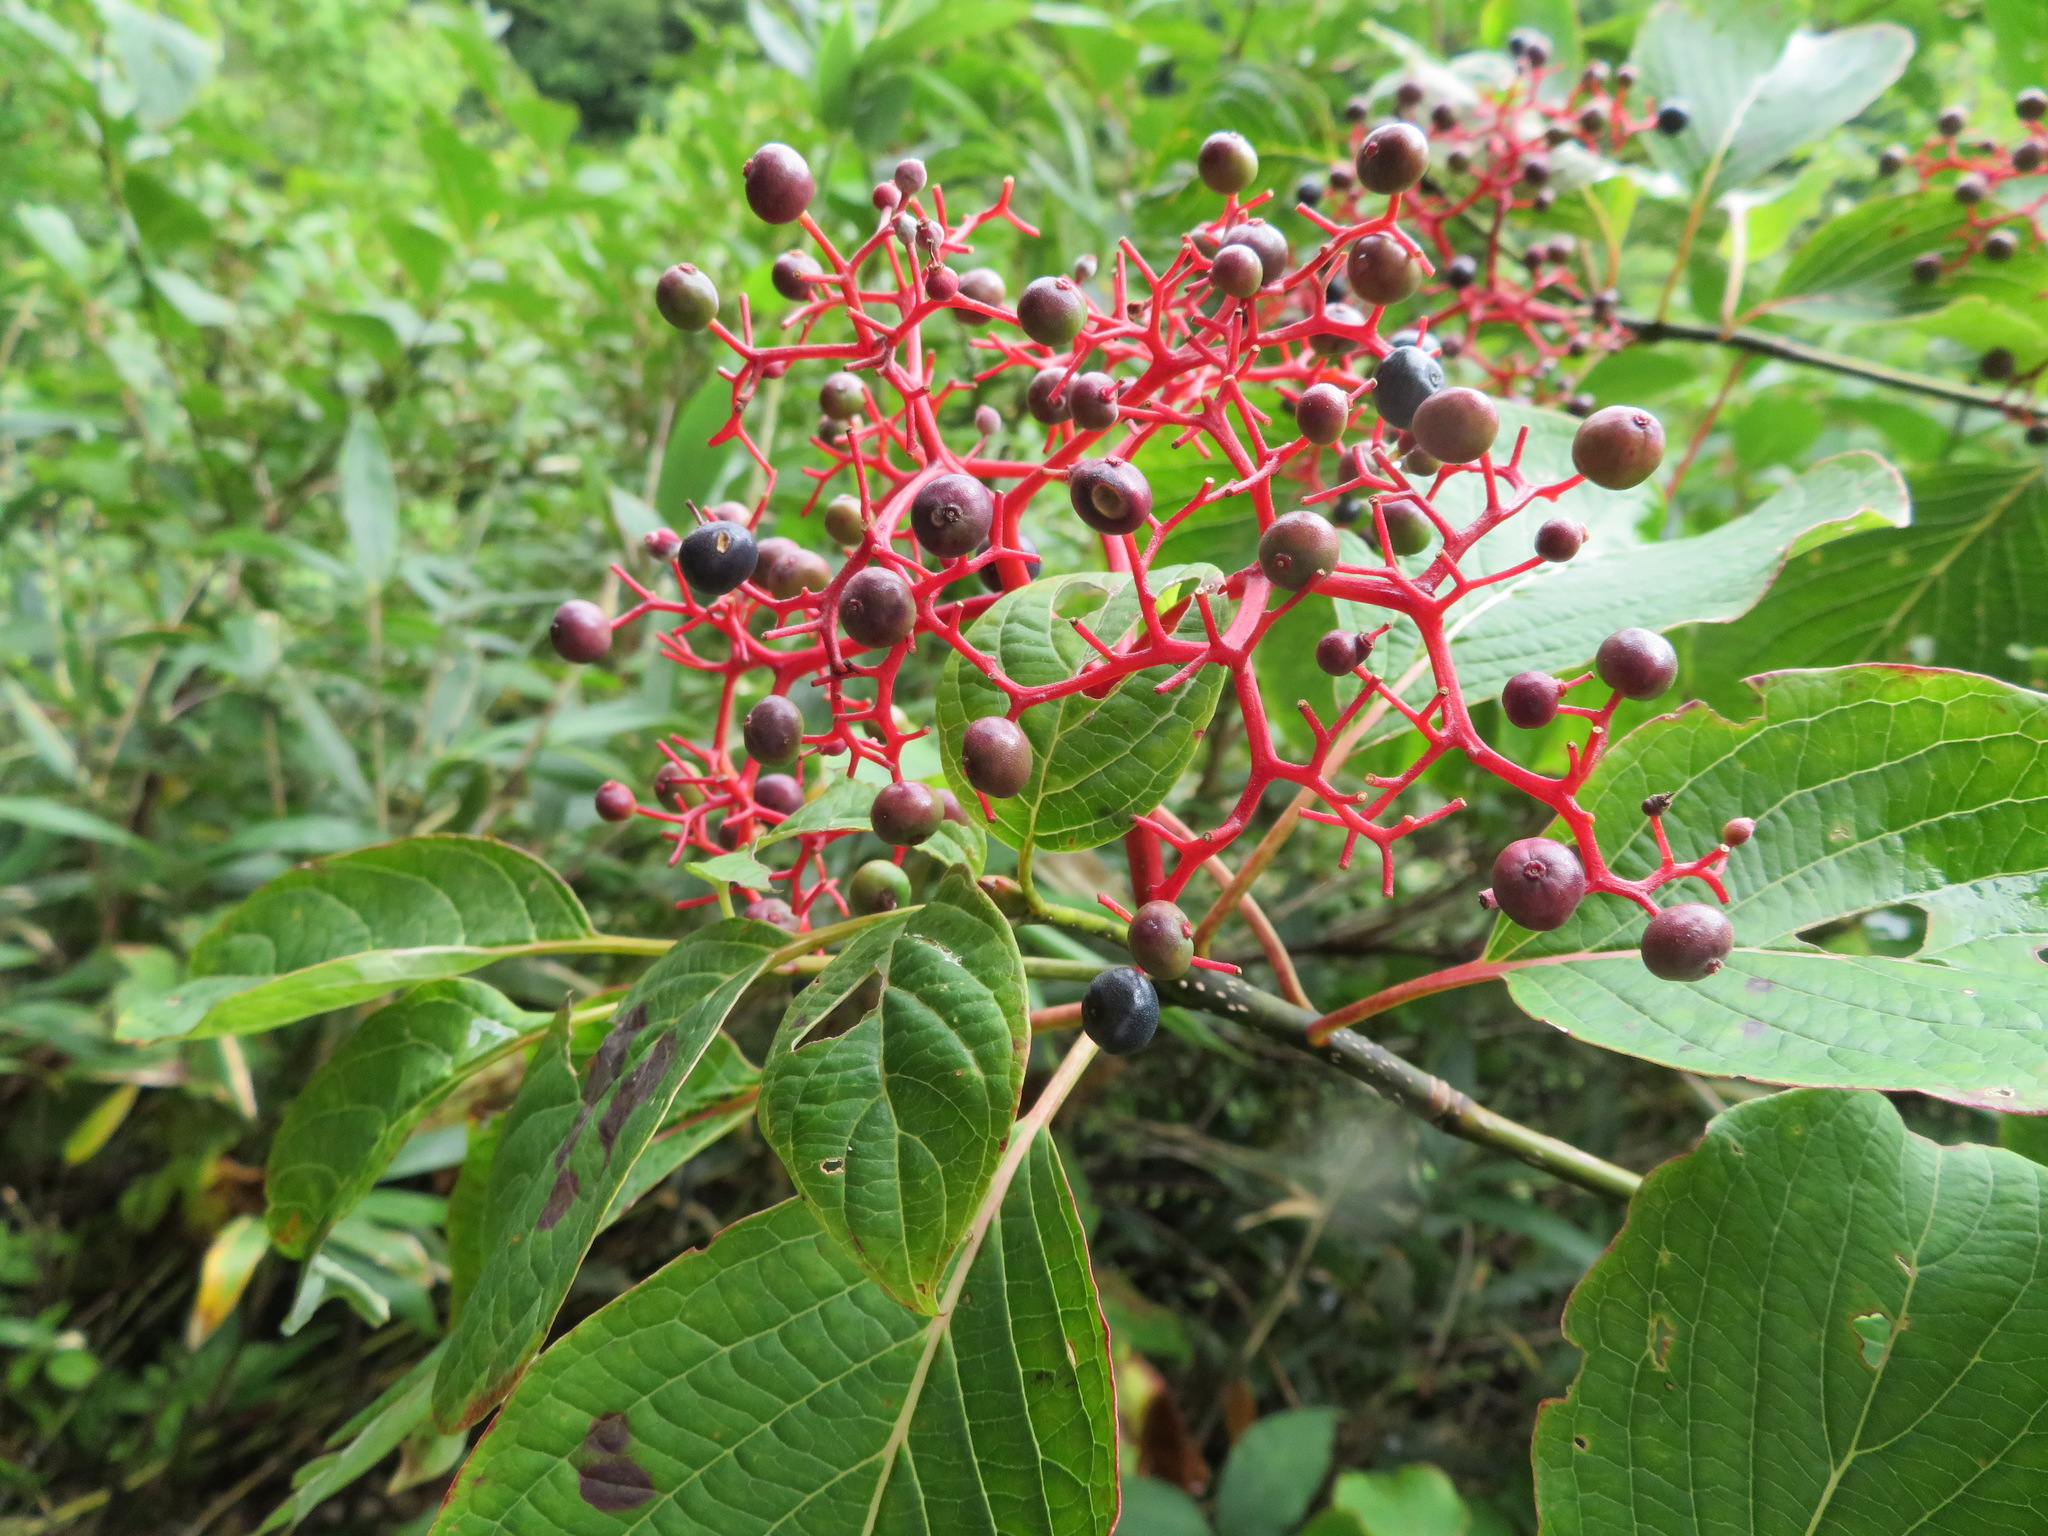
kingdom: Plantae
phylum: Tracheophyta
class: Magnoliopsida
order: Cornales
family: Cornaceae
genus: Cornus
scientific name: Cornus controversa
